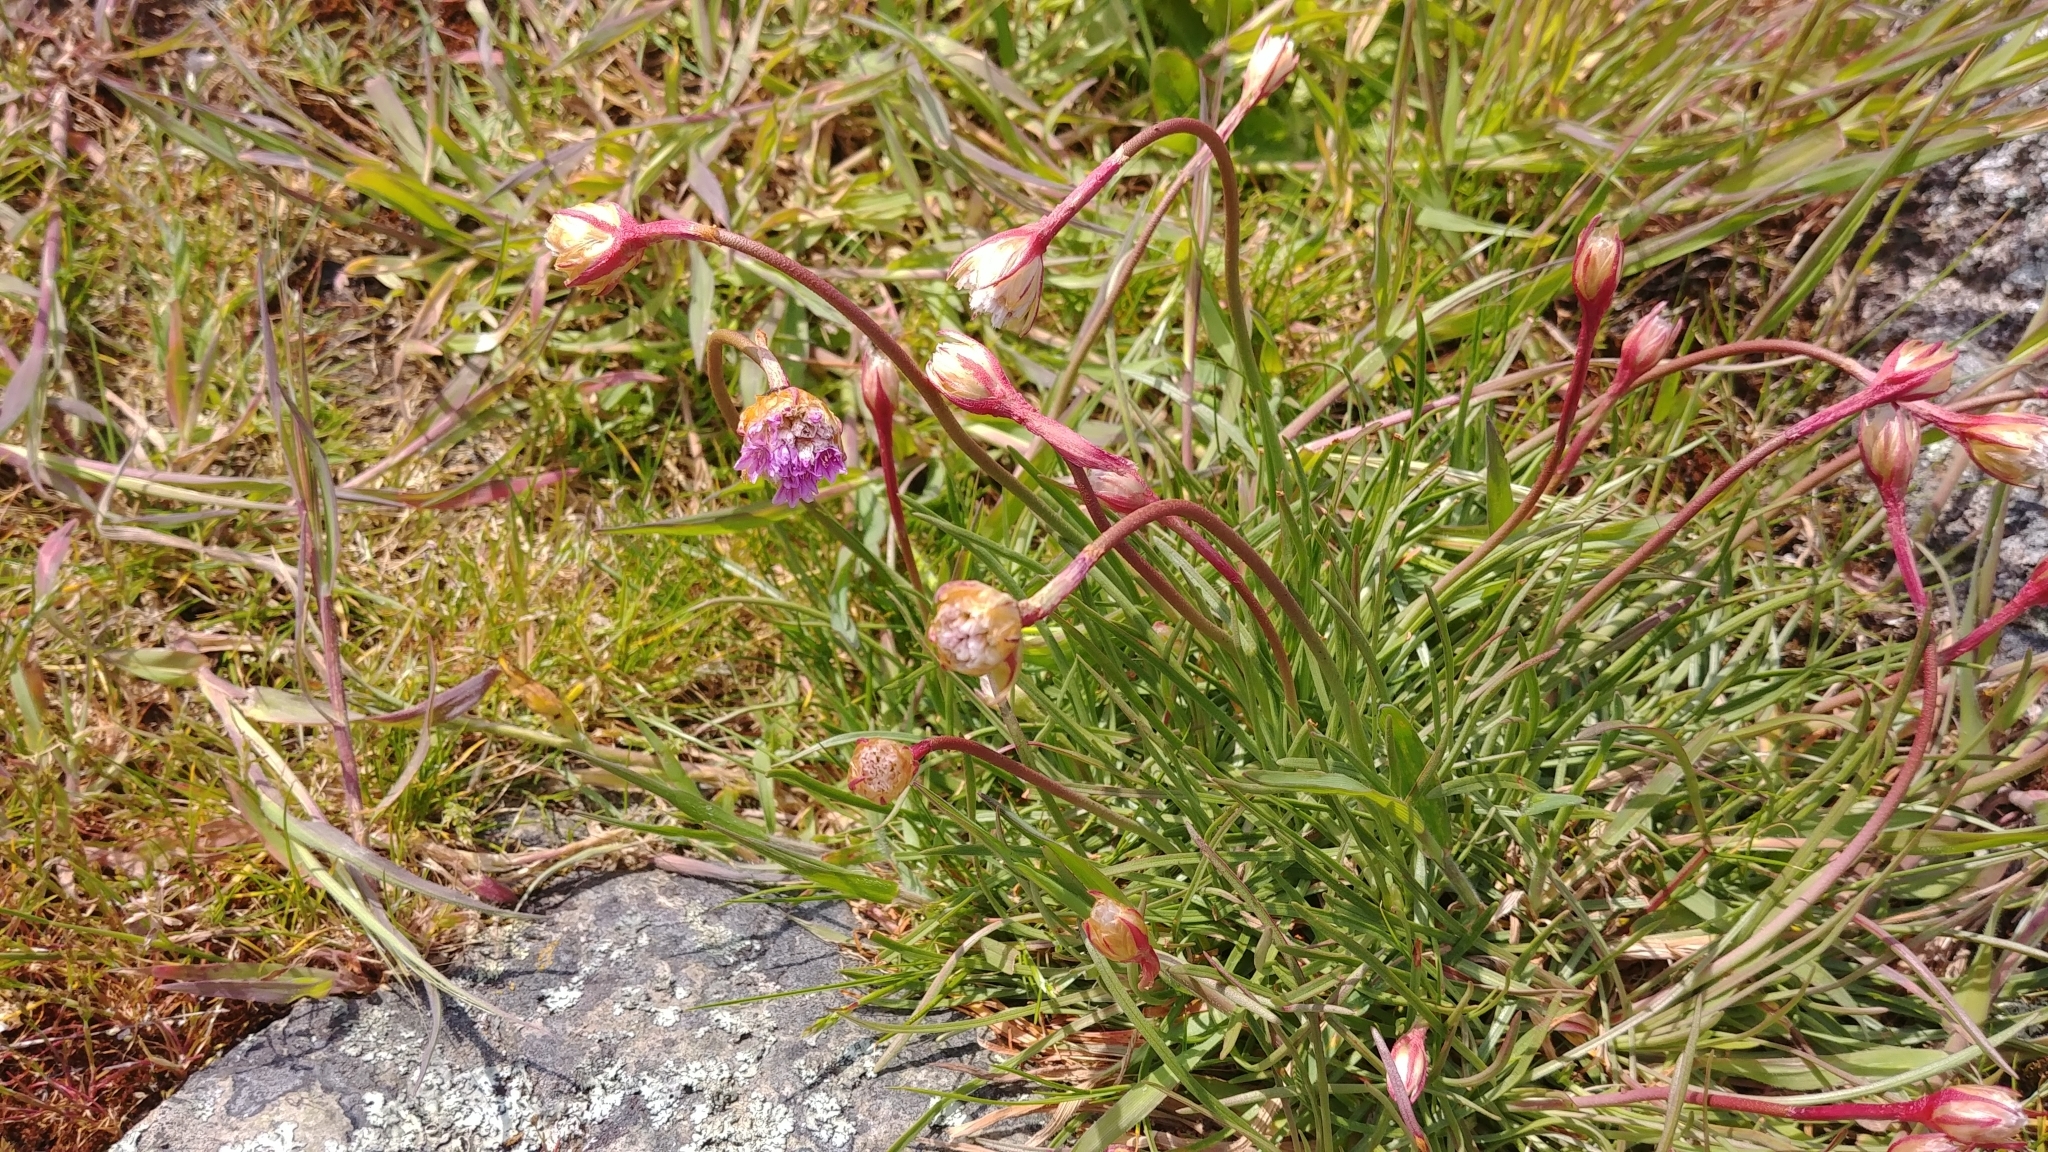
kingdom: Plantae
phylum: Tracheophyta
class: Magnoliopsida
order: Caryophyllales
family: Plumbaginaceae
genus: Armeria
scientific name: Armeria maritima
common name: Thrift
